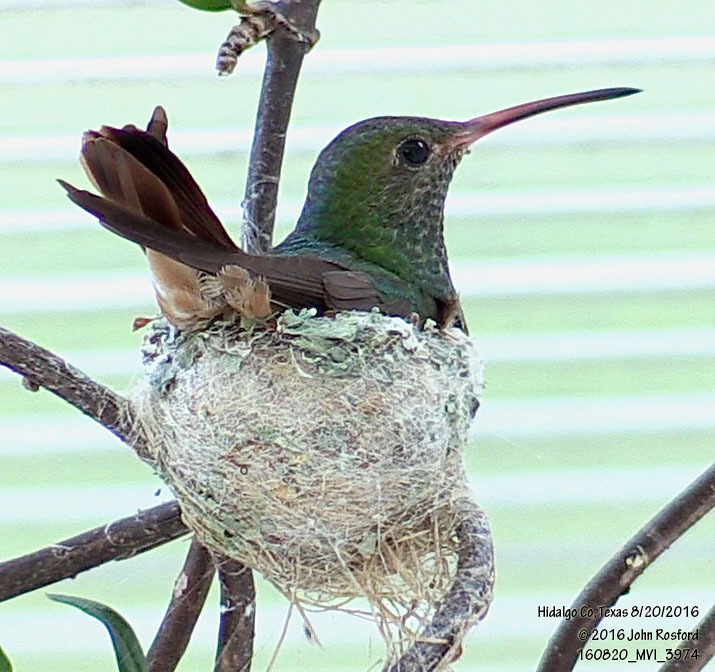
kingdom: Animalia
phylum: Chordata
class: Aves
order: Apodiformes
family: Trochilidae
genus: Amazilia
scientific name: Amazilia yucatanensis
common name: Buff-bellied hummingbird
